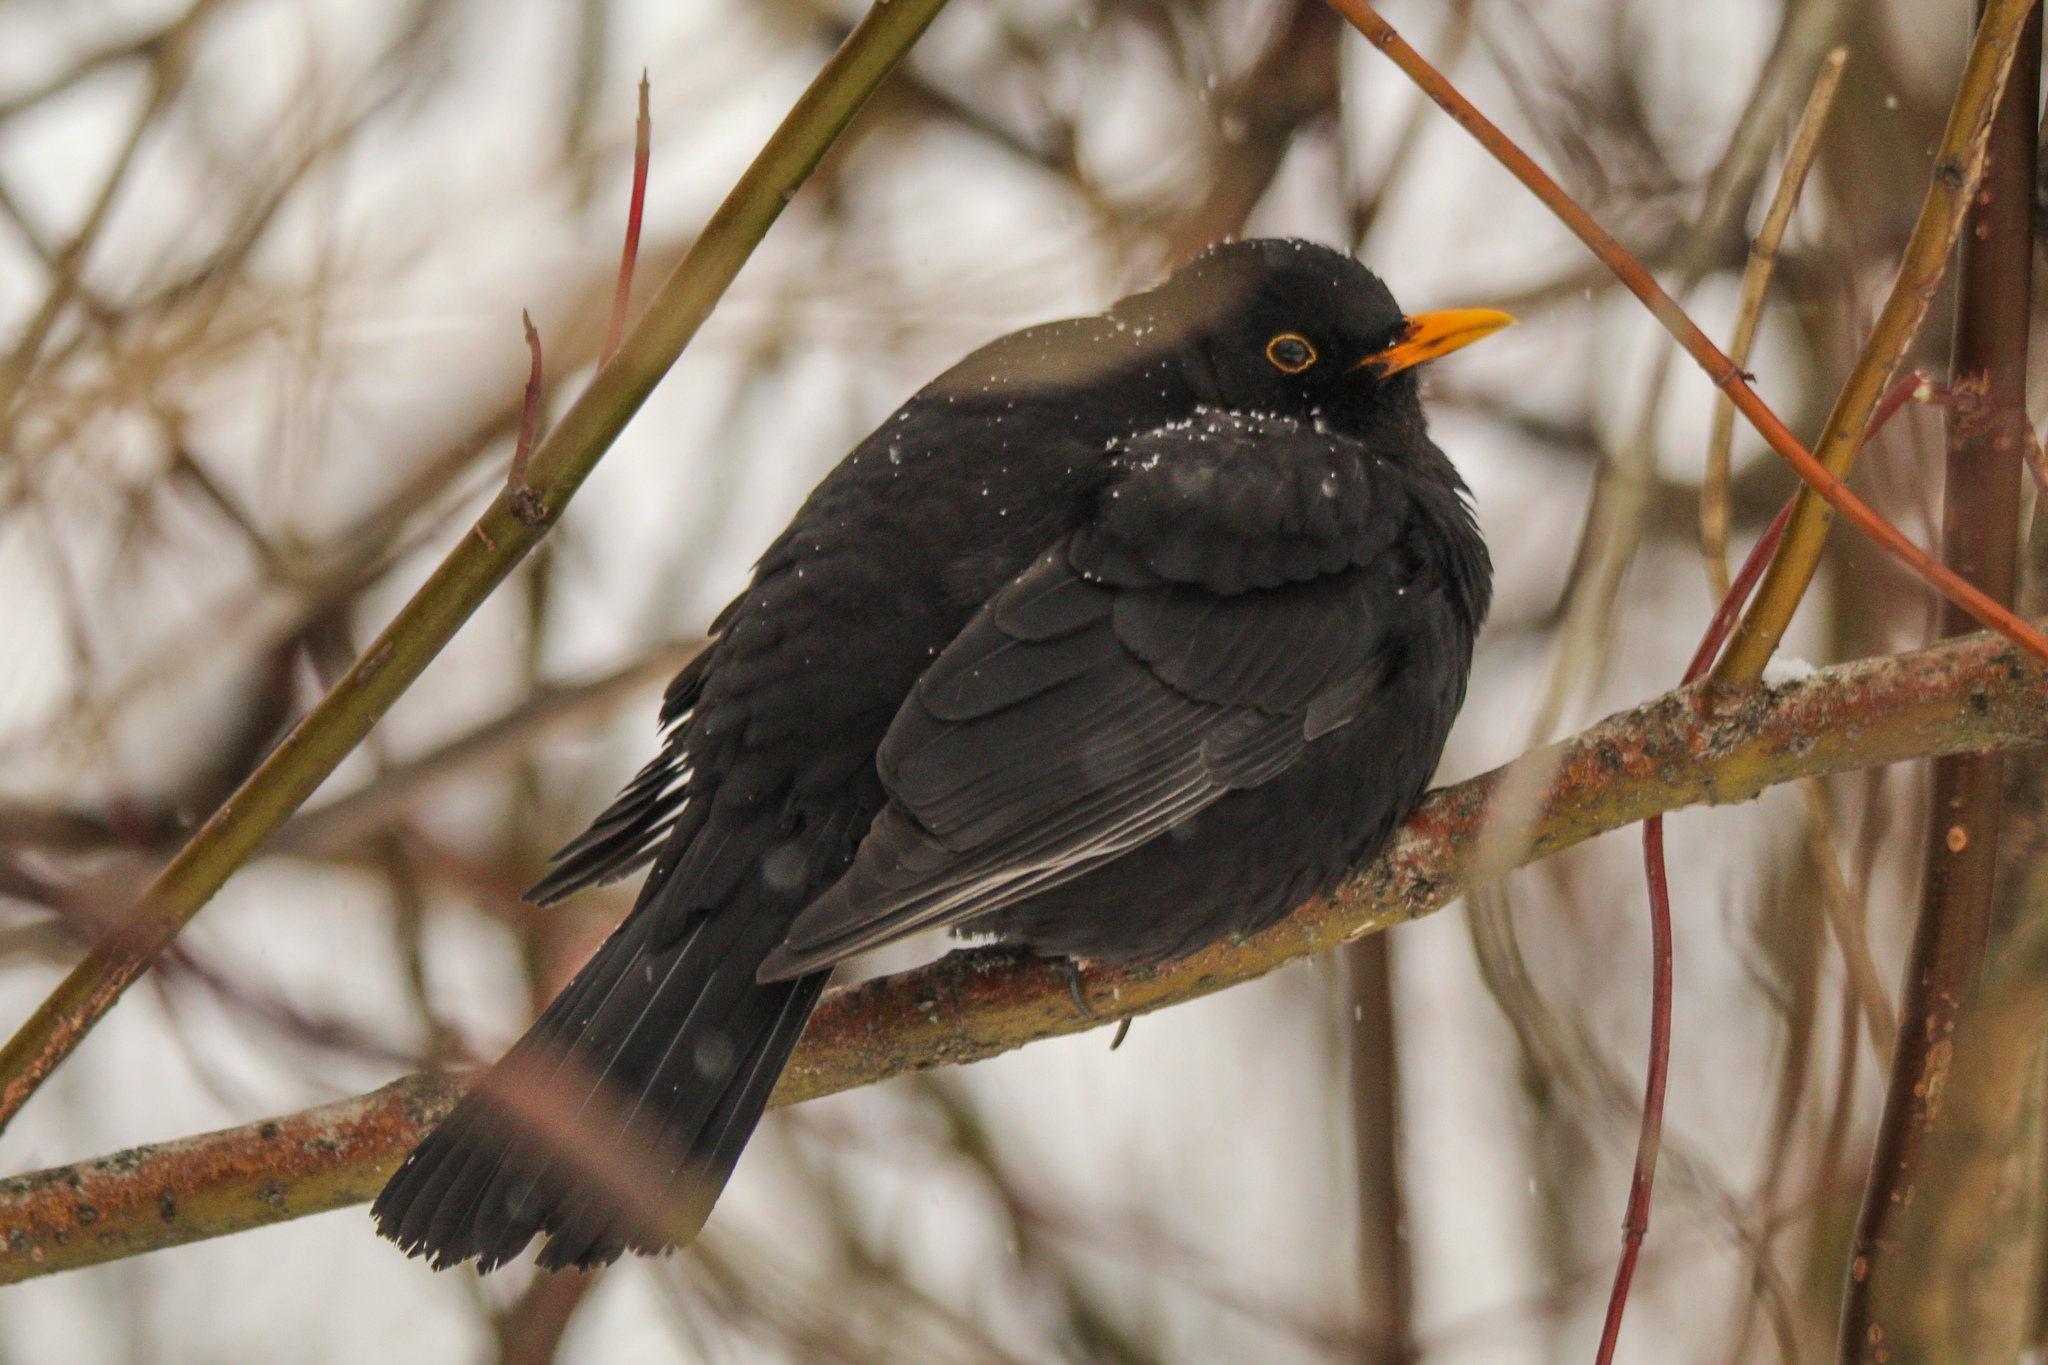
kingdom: Animalia
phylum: Chordata
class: Aves
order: Passeriformes
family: Turdidae
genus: Turdus
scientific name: Turdus merula
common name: Common blackbird
